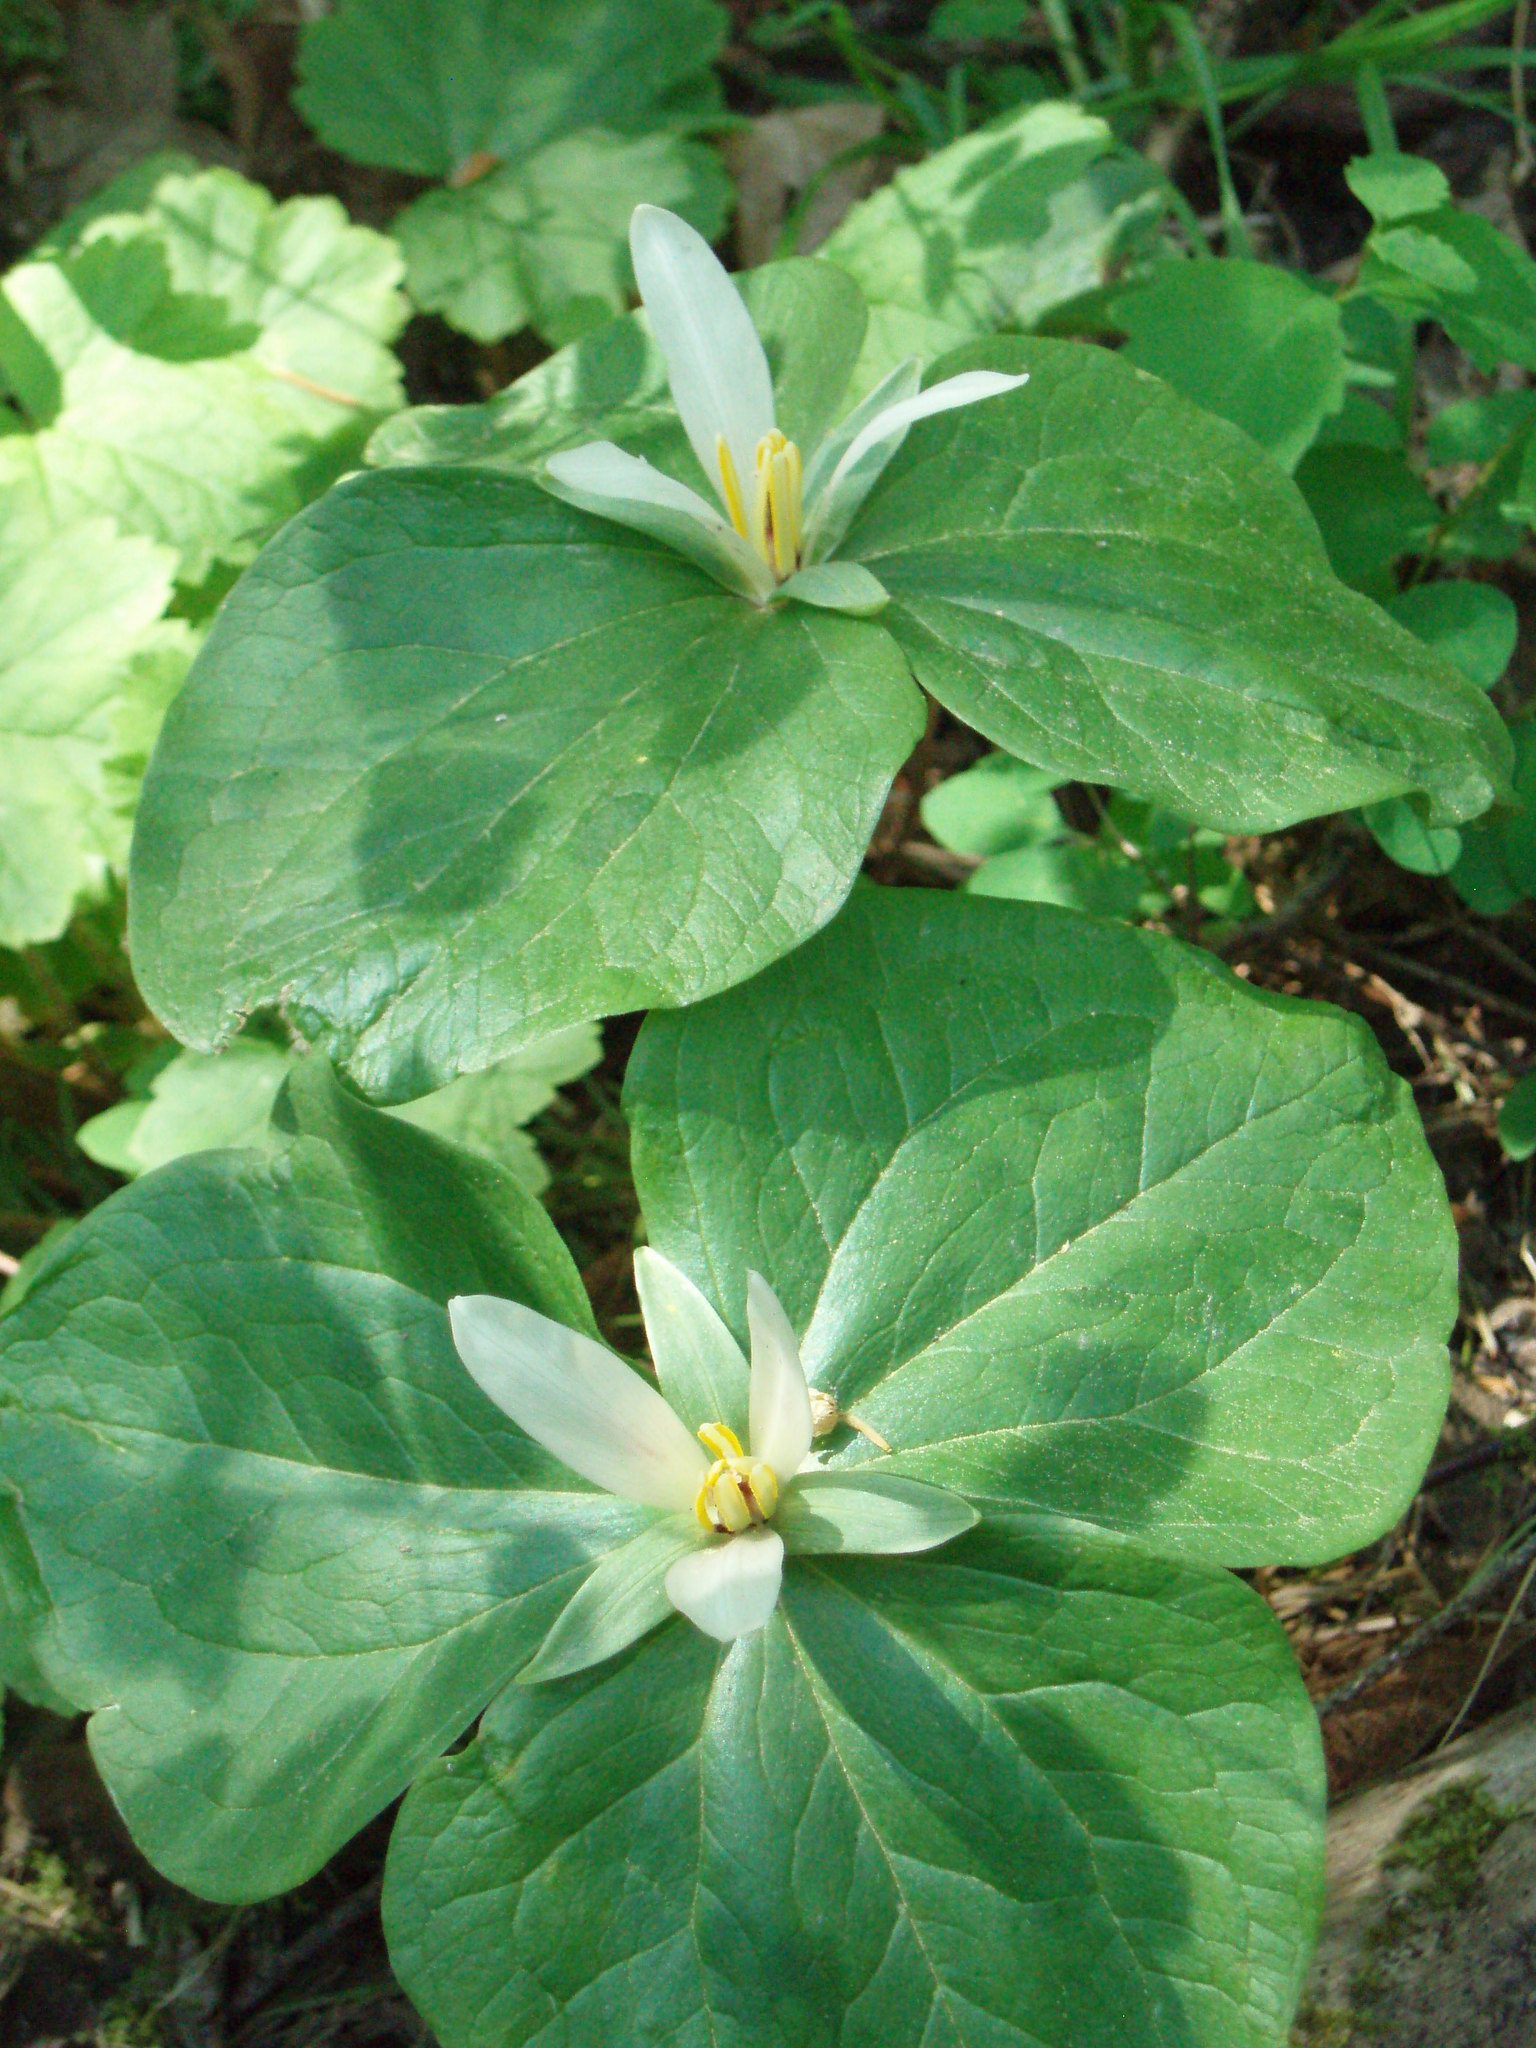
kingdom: Plantae
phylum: Tracheophyta
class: Liliopsida
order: Liliales
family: Melanthiaceae
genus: Trillium
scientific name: Trillium albidum
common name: Freeman's trillium
